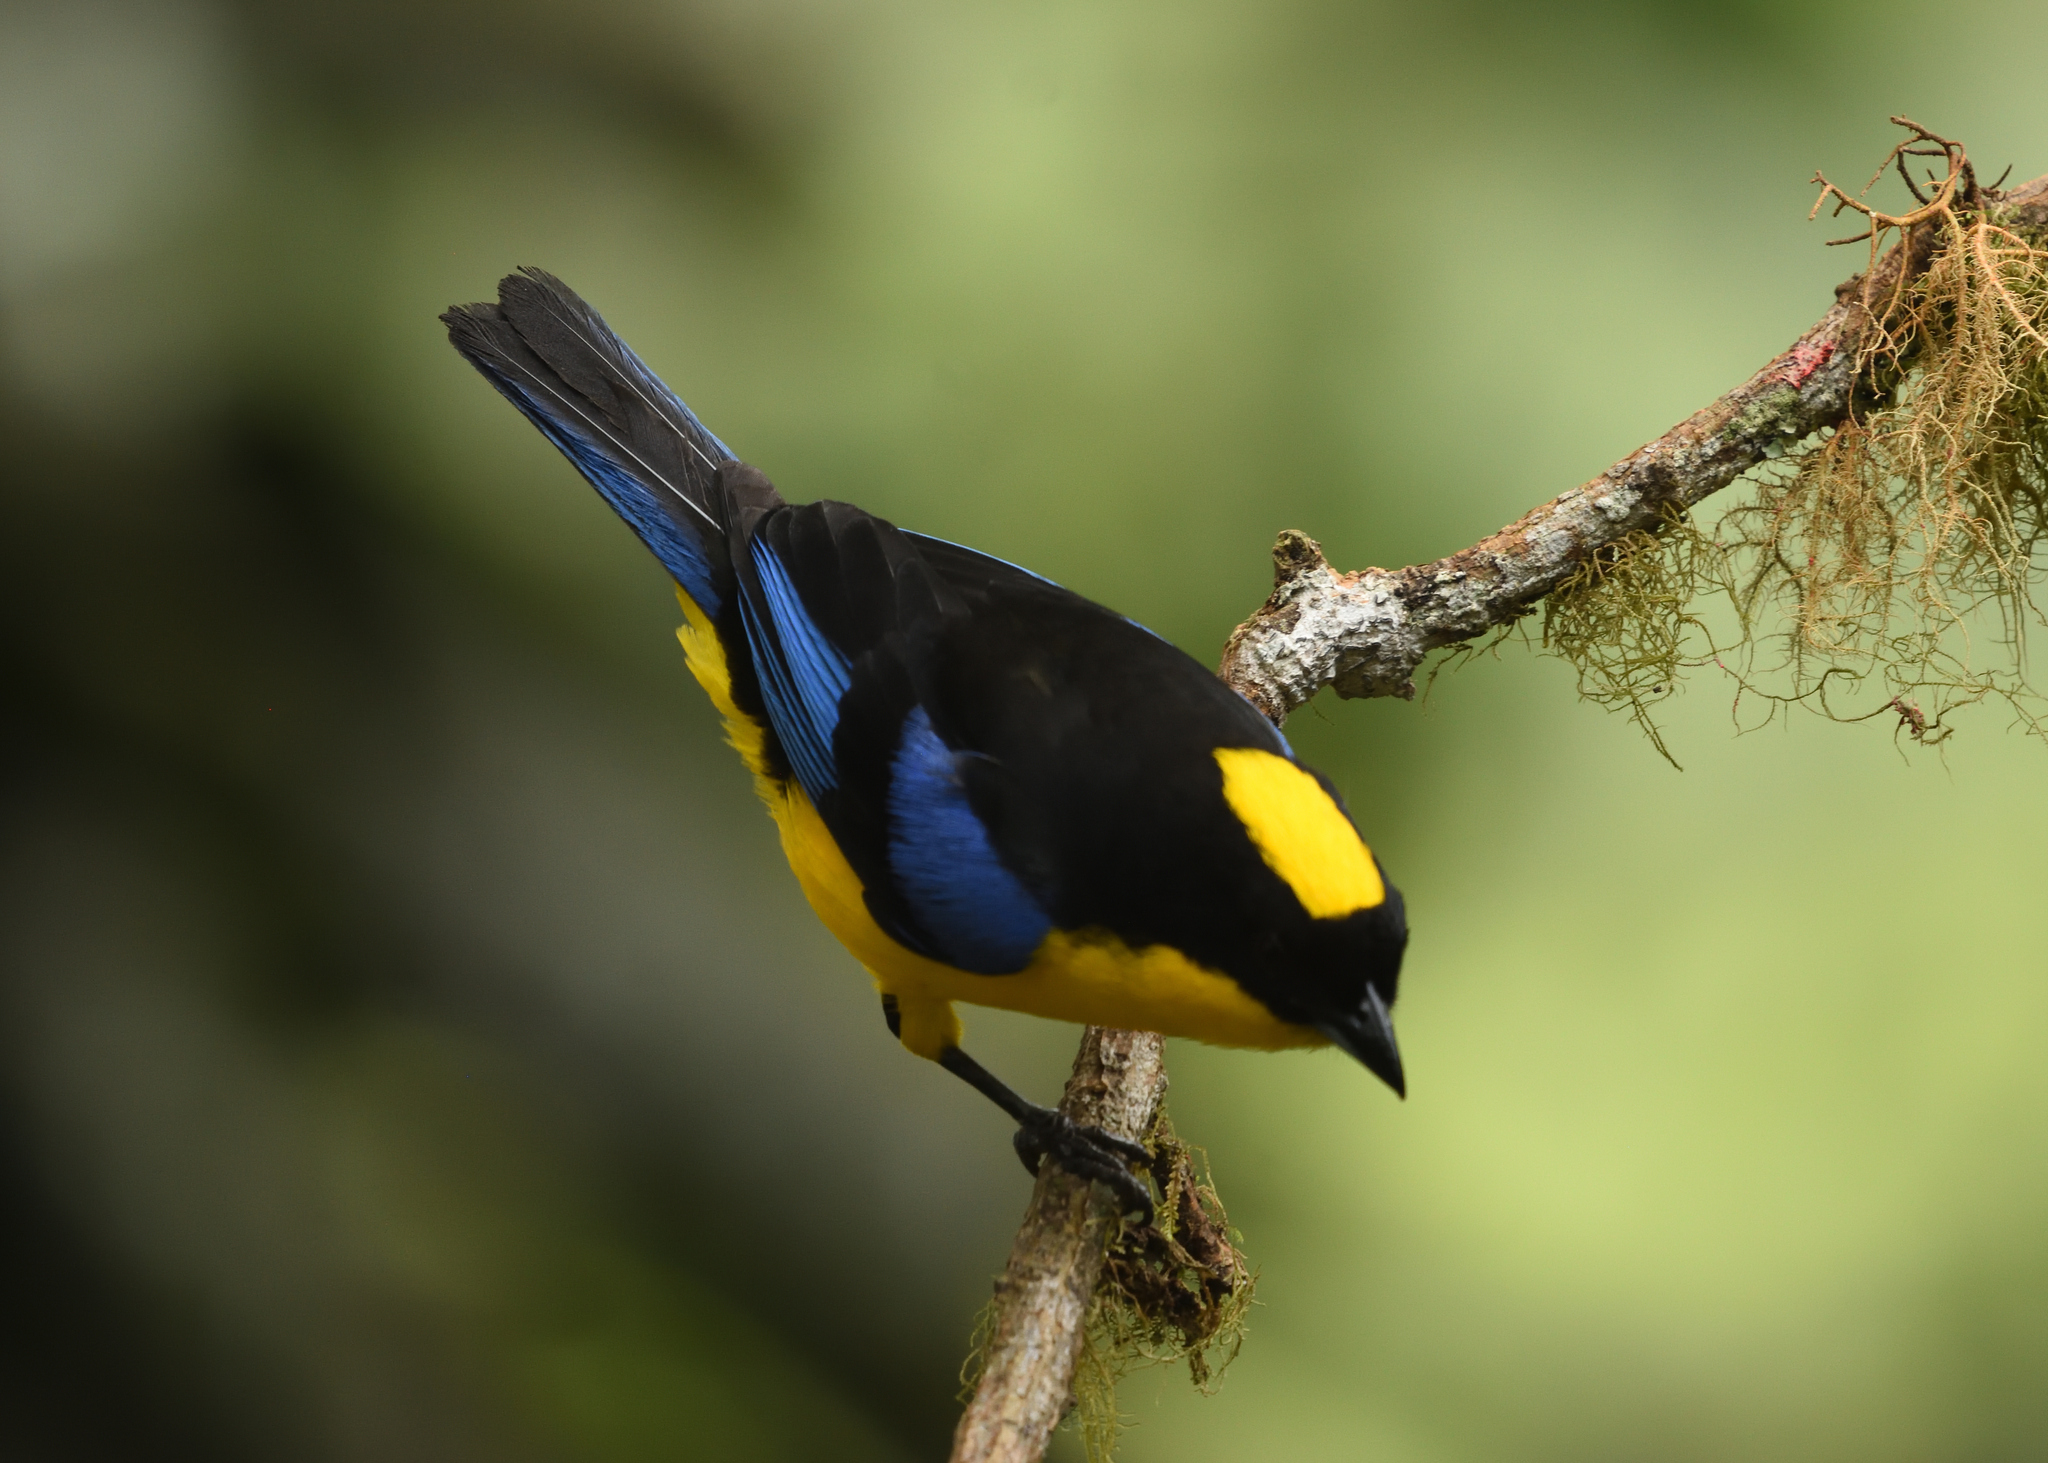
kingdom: Animalia
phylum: Chordata
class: Aves
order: Passeriformes
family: Thraupidae
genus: Anisognathus
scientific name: Anisognathus somptuosus
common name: Blue-winged mountain-tanager
